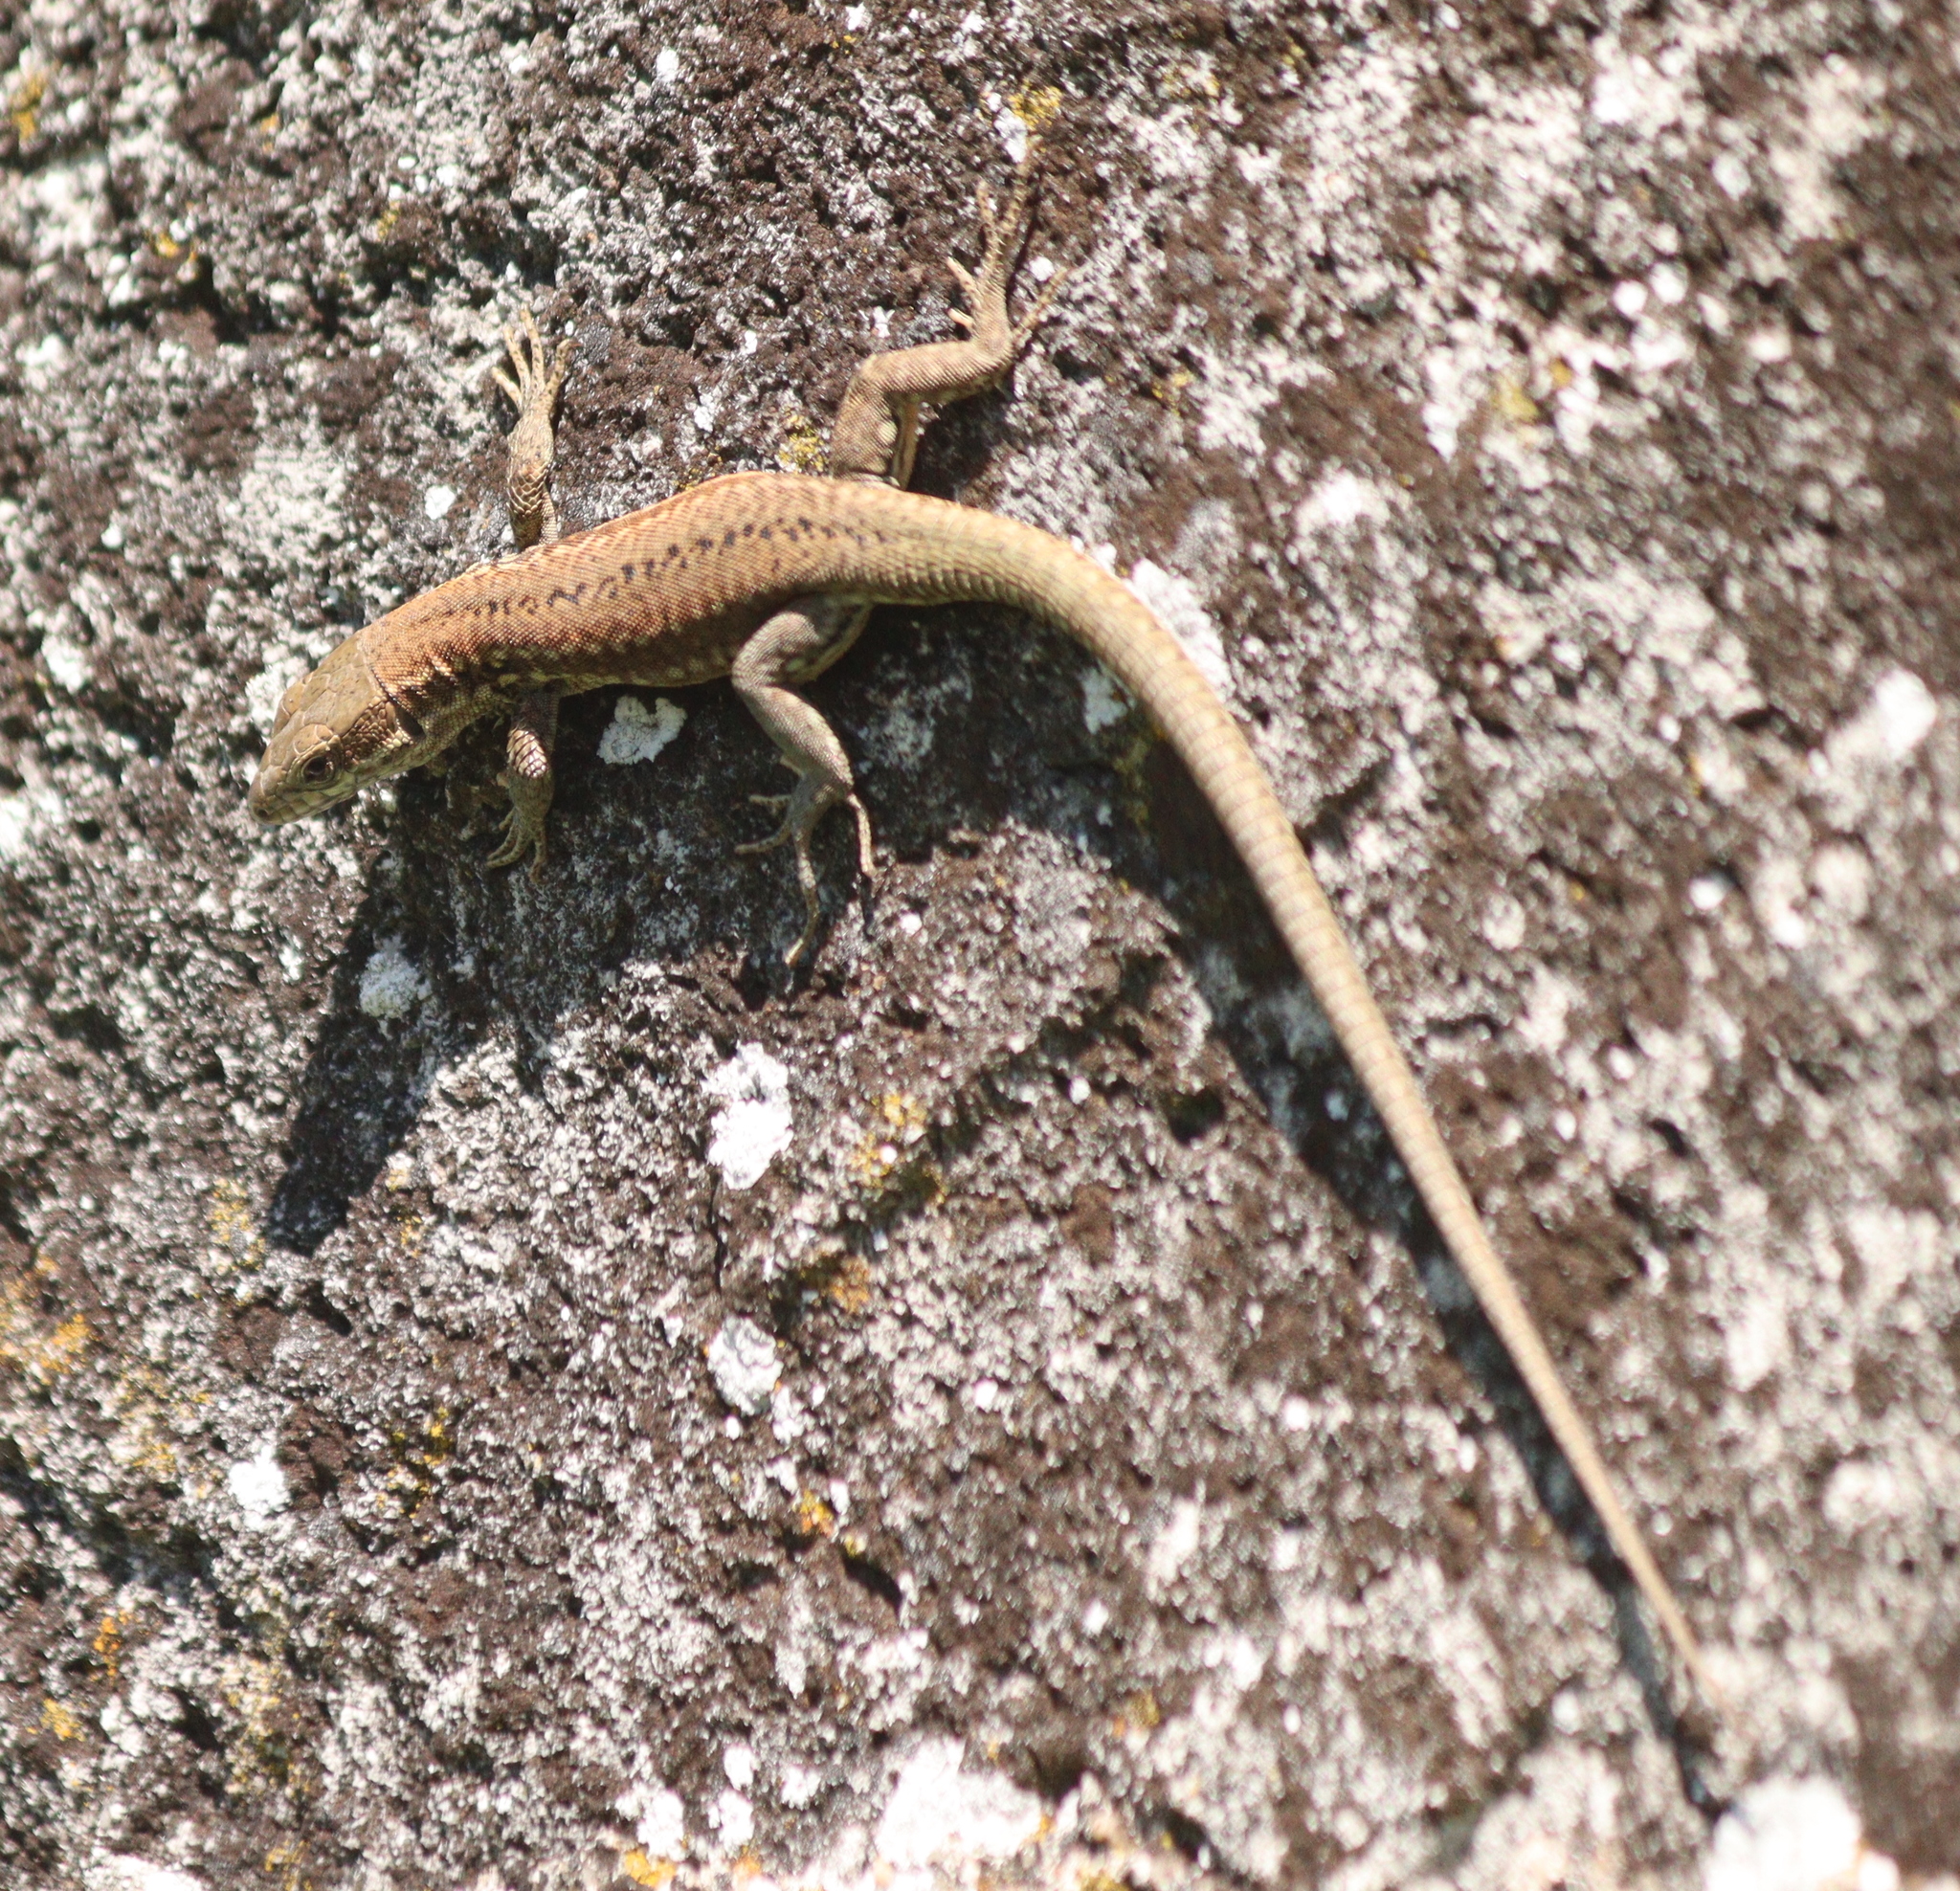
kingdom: Animalia
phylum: Chordata
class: Squamata
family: Lacertidae
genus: Podarcis
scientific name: Podarcis muralis
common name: Common wall lizard
